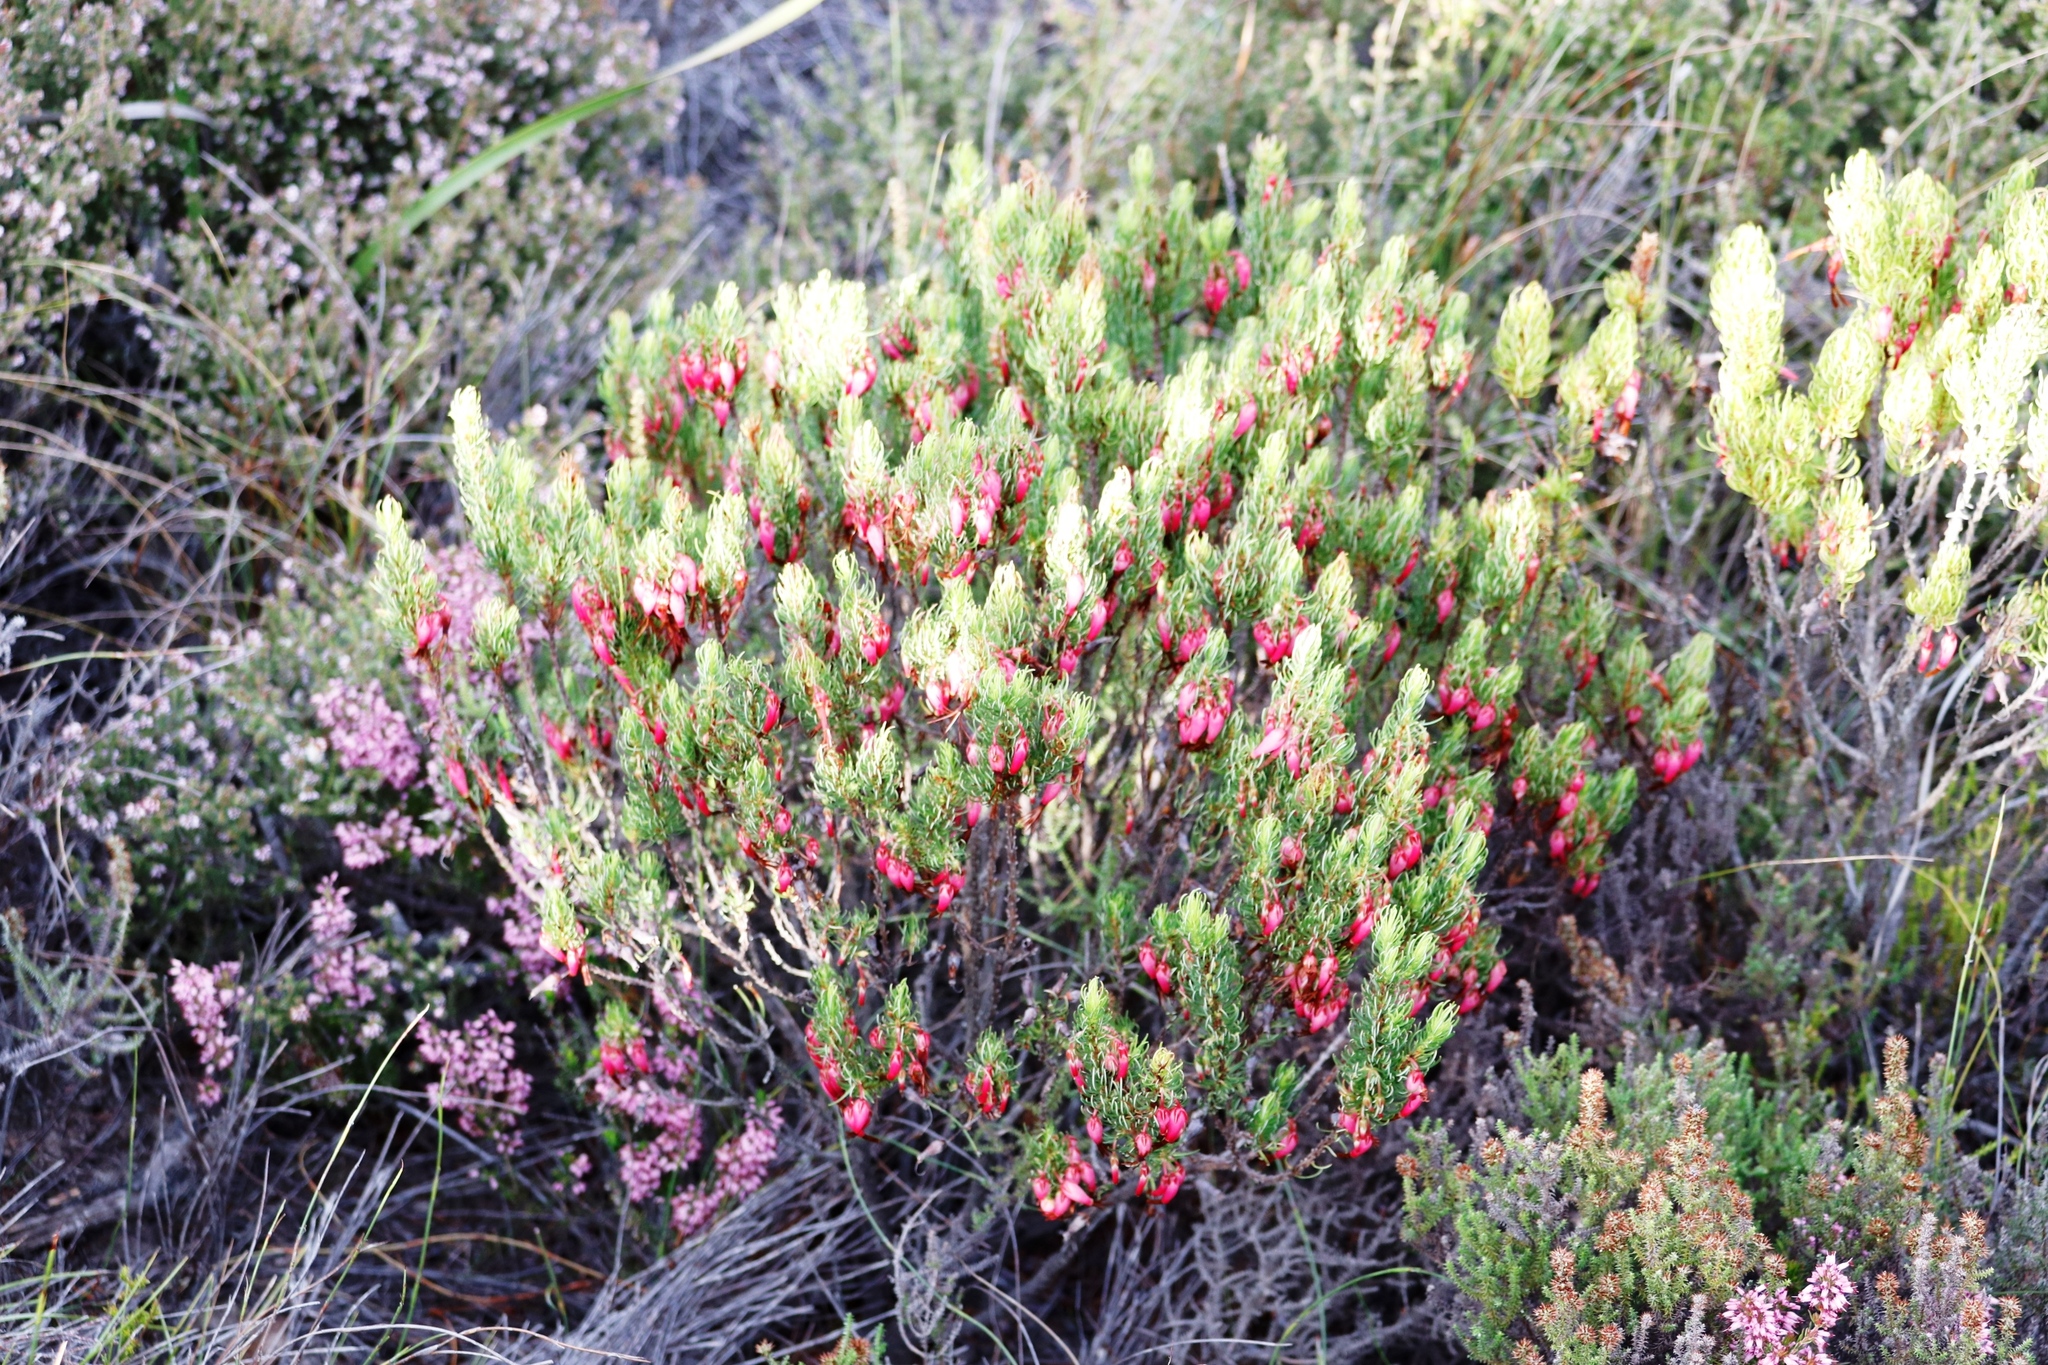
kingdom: Plantae
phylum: Tracheophyta
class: Magnoliopsida
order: Ericales
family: Ericaceae
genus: Erica
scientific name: Erica plukenetii
